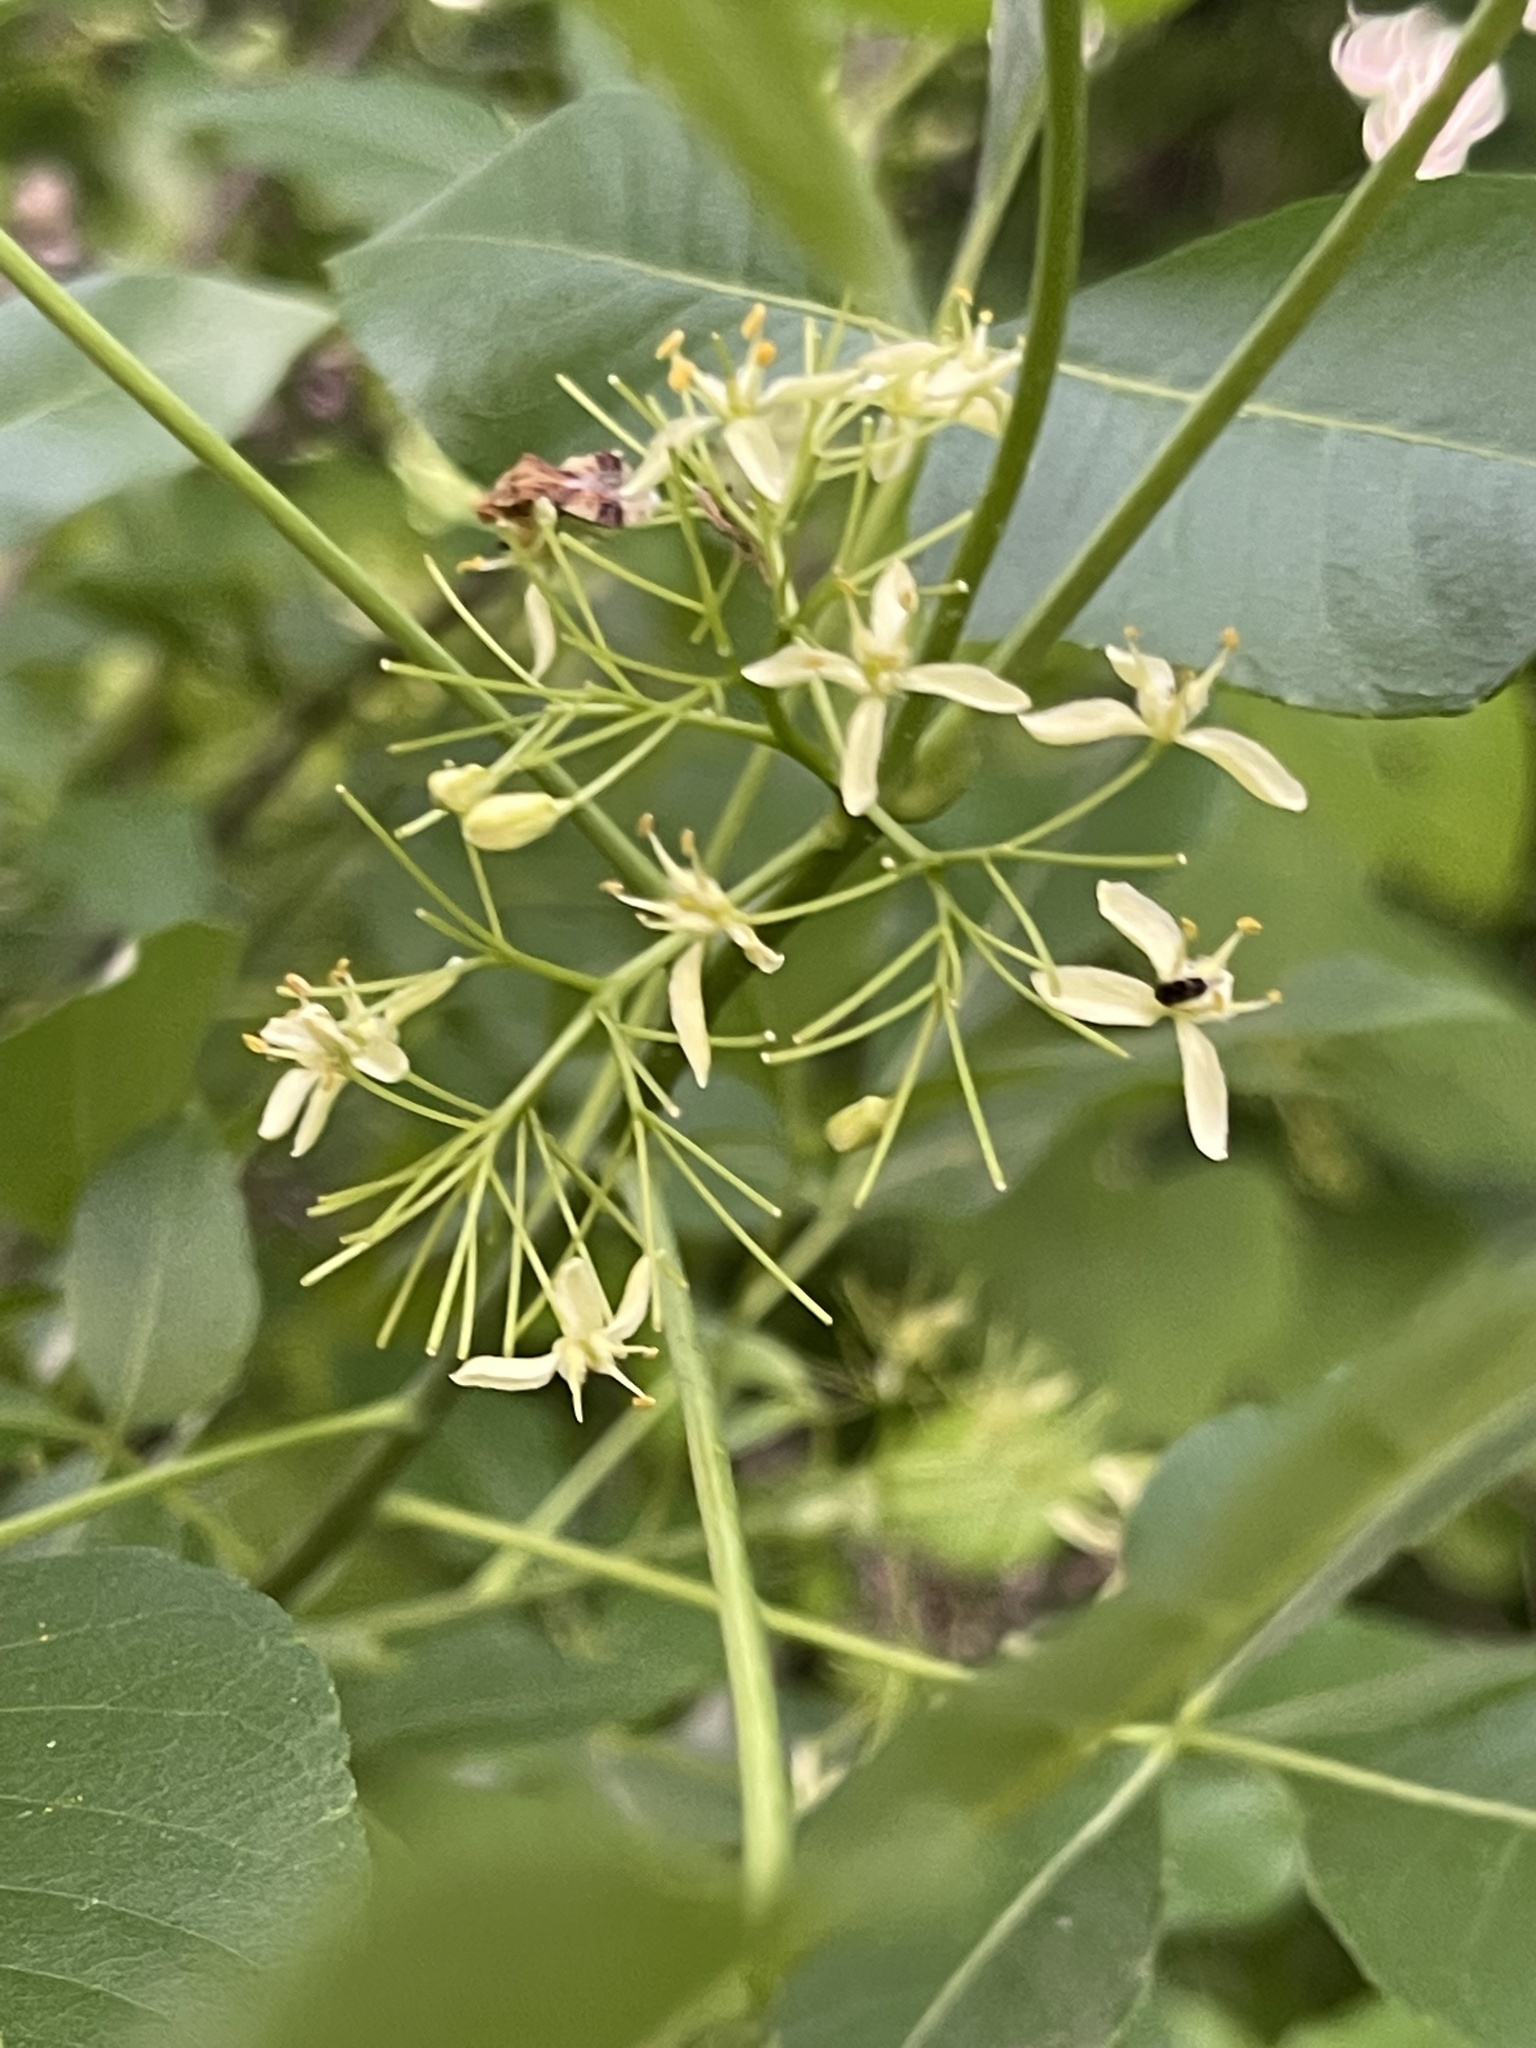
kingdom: Plantae
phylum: Tracheophyta
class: Magnoliopsida
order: Sapindales
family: Rutaceae
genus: Ptelea
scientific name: Ptelea trifoliata
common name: Common hop-tree
